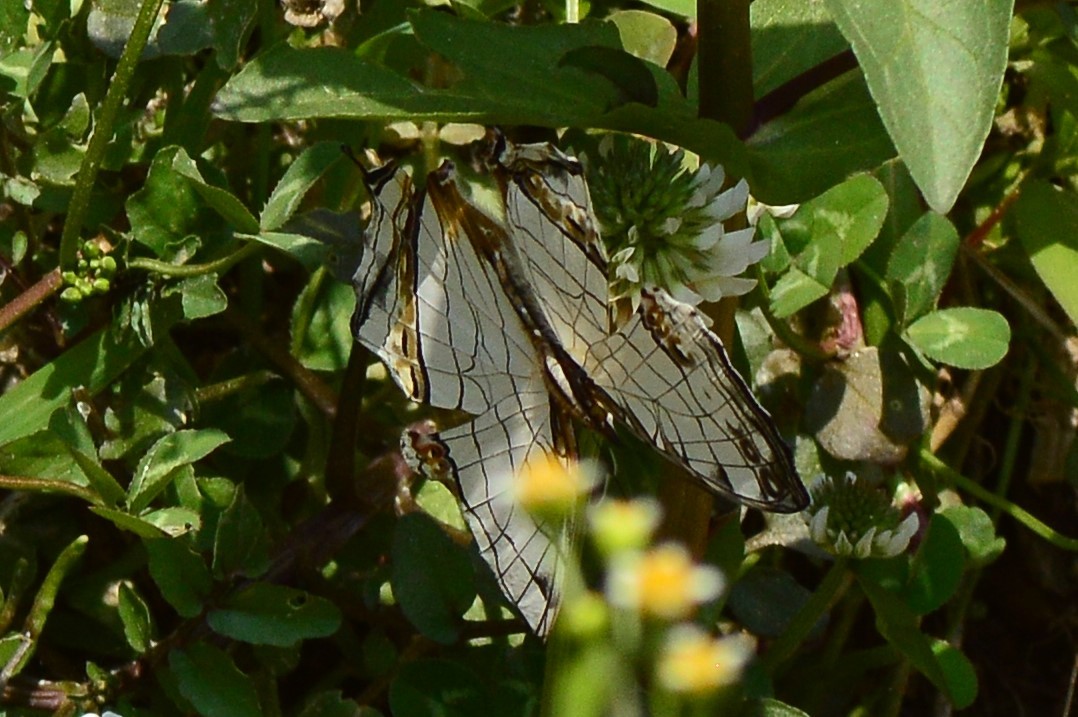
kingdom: Animalia
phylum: Arthropoda
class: Insecta
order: Lepidoptera
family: Nymphalidae
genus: Cyrestis
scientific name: Cyrestis thyodamas
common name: Common mapwing
